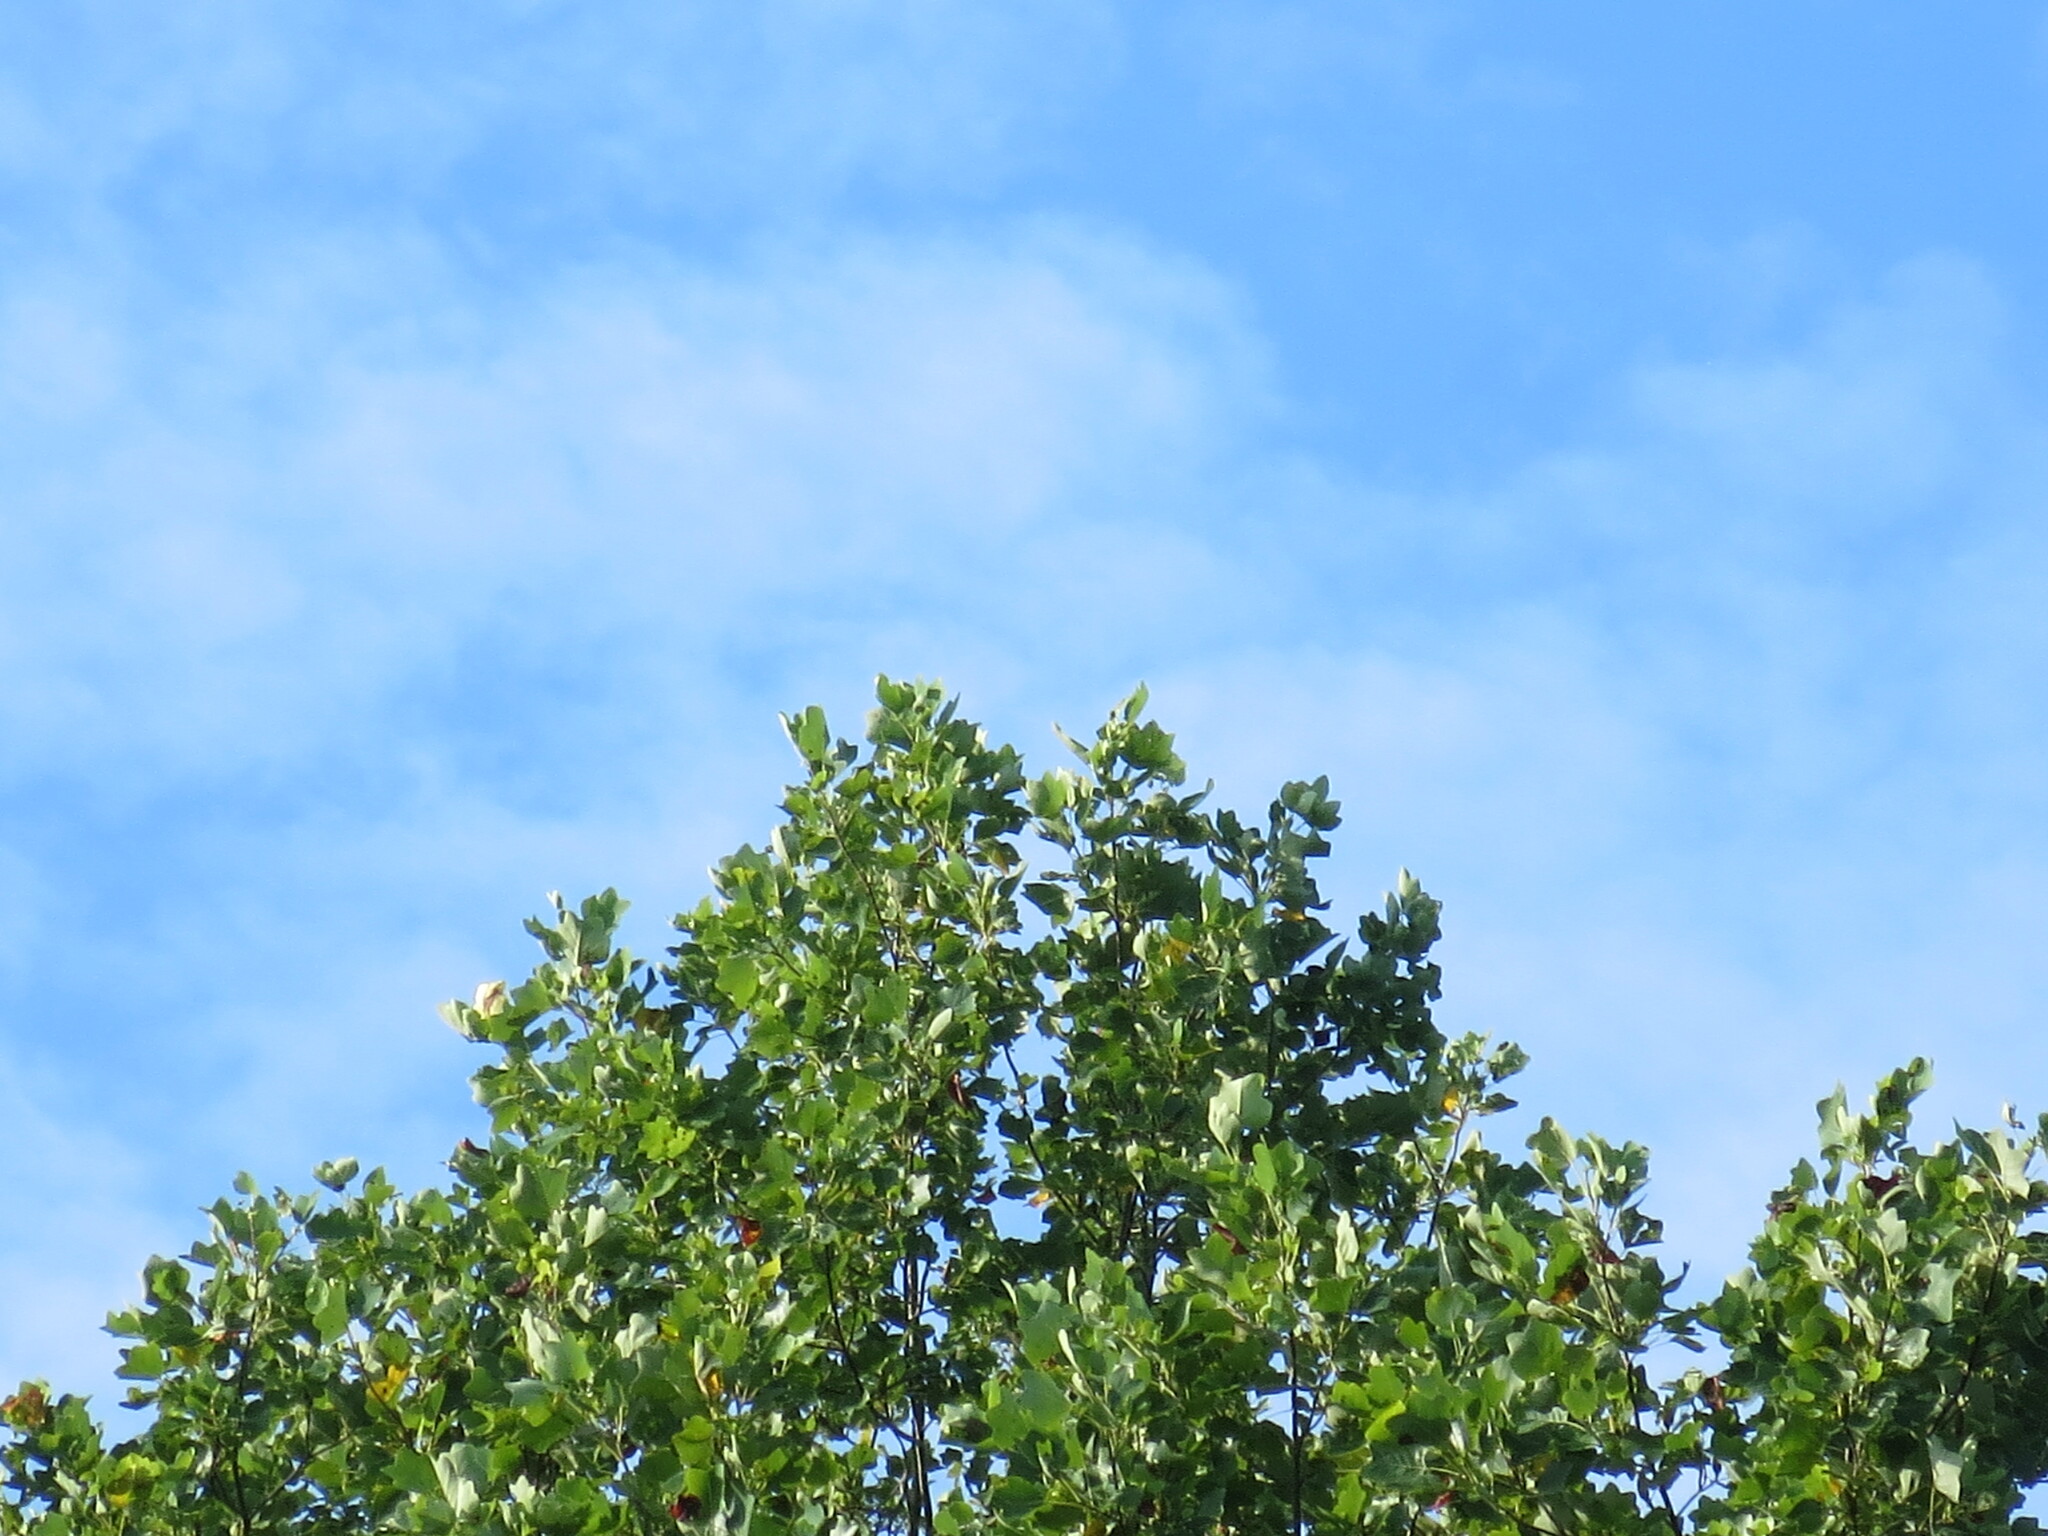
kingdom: Plantae
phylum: Tracheophyta
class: Magnoliopsida
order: Magnoliales
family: Magnoliaceae
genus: Liriodendron
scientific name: Liriodendron tulipifera
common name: Tulip tree
